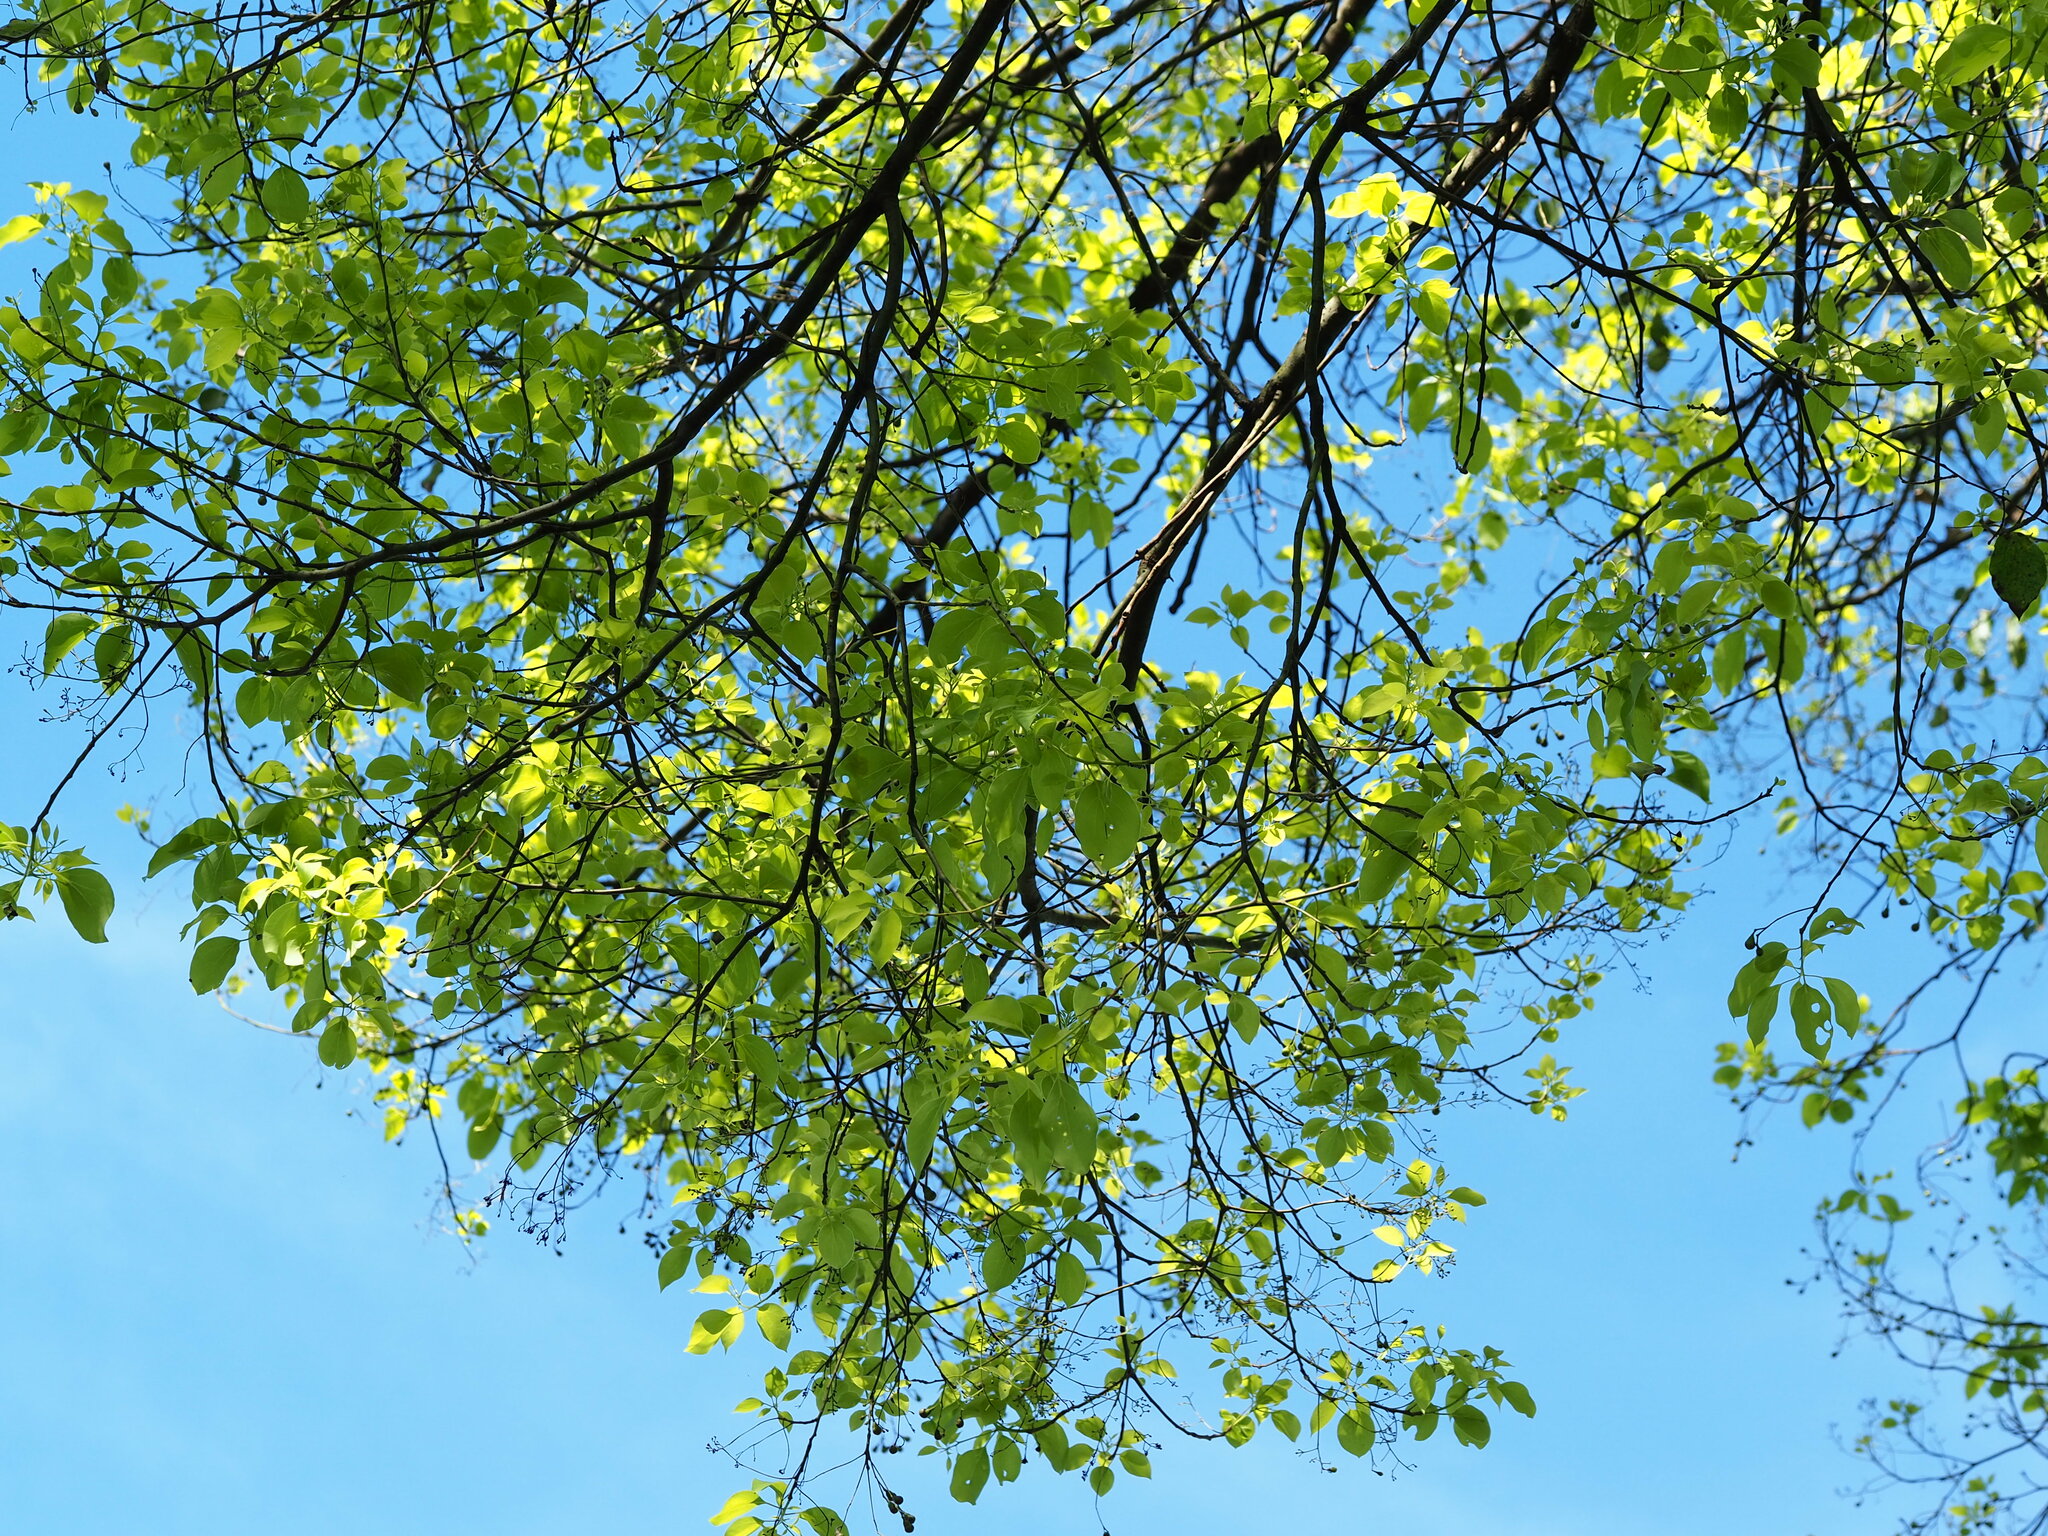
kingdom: Plantae
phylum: Tracheophyta
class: Magnoliopsida
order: Laurales
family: Lauraceae
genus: Cinnamomum
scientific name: Cinnamomum camphora
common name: Camphortree
